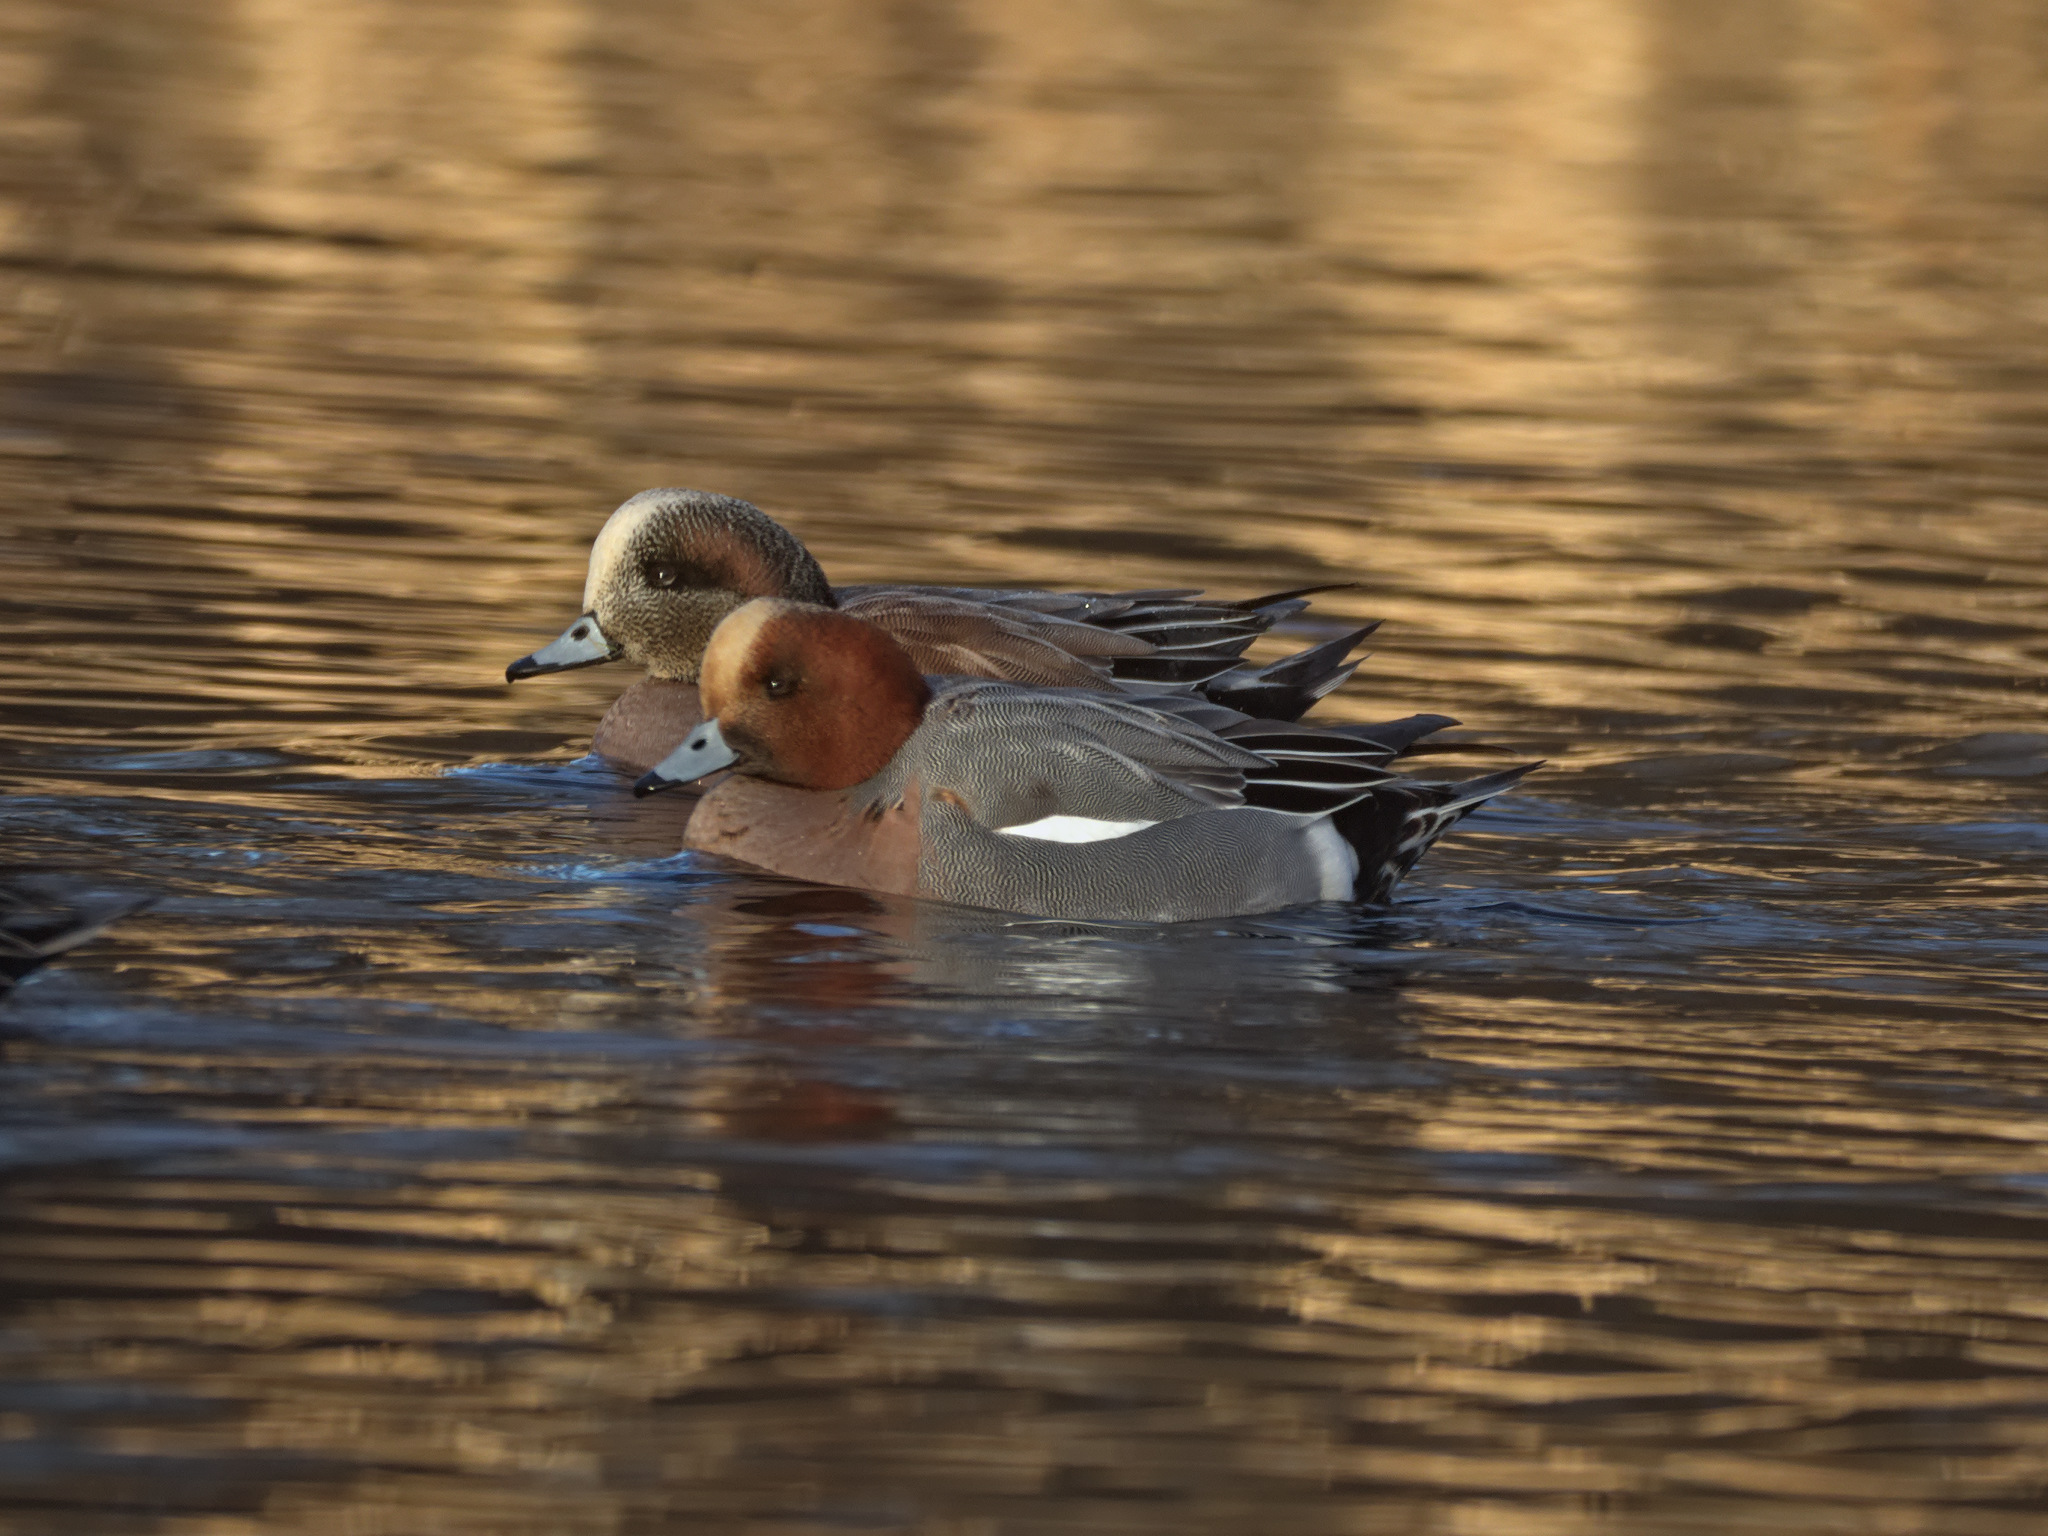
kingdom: Animalia
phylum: Chordata
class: Aves
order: Anseriformes
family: Anatidae
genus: Mareca
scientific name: Mareca penelope
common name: Eurasian wigeon
